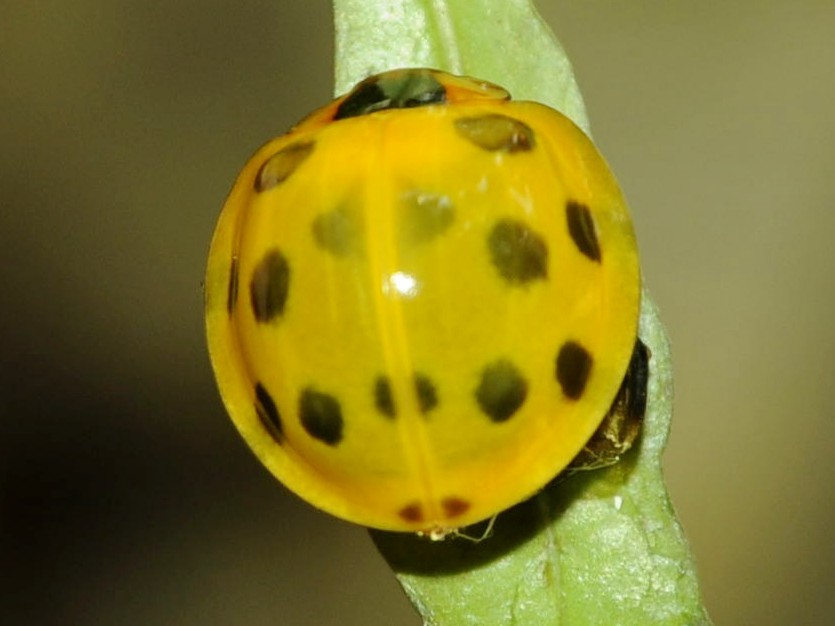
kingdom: Animalia
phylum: Arthropoda
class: Insecta
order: Coleoptera
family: Coccinellidae
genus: Synonycha
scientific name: Synonycha grandis
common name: Lady beetle
